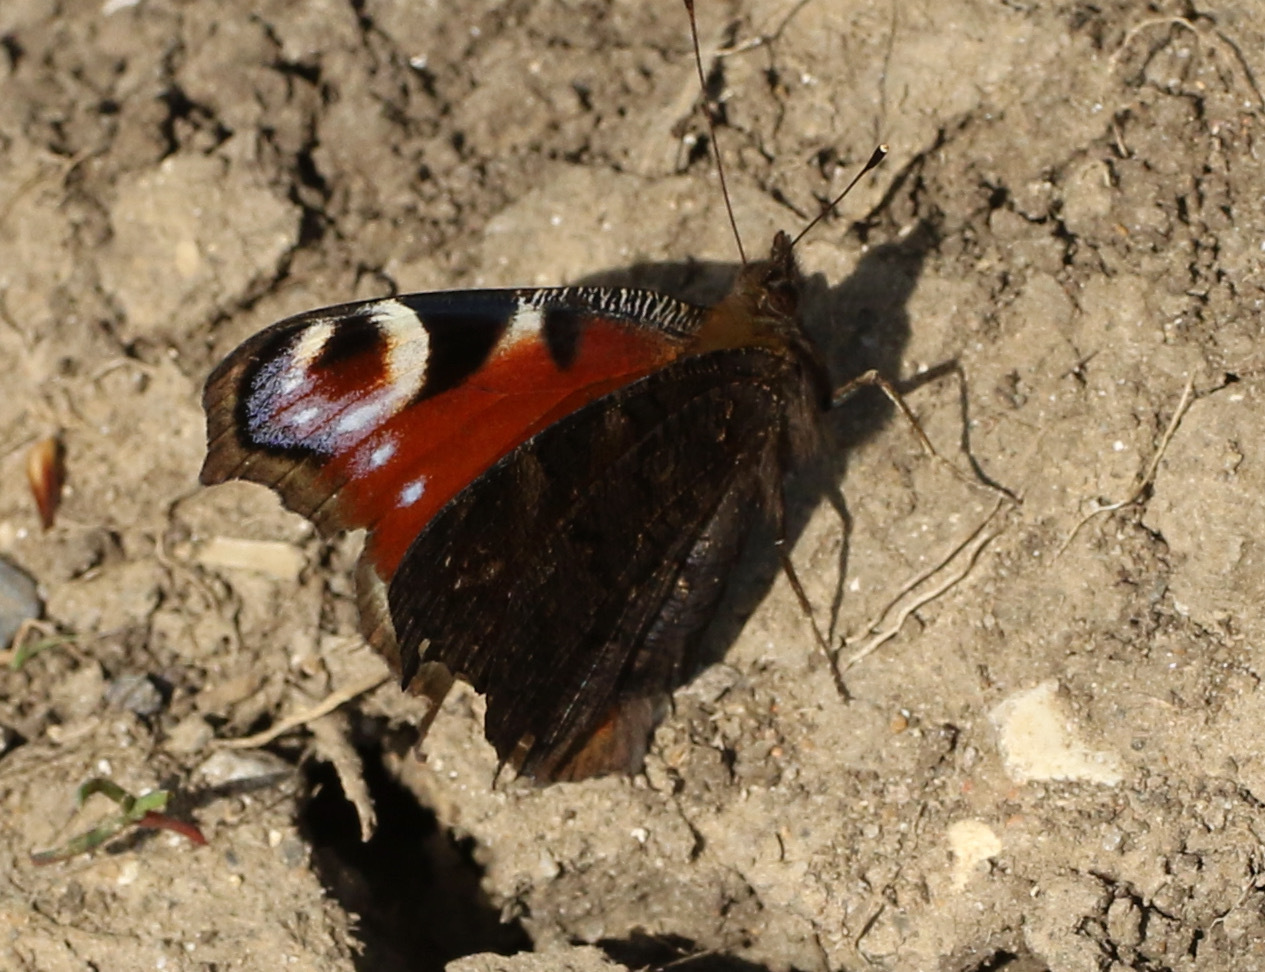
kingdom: Animalia
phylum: Arthropoda
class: Insecta
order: Lepidoptera
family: Nymphalidae
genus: Aglais
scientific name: Aglais io
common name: Peacock
